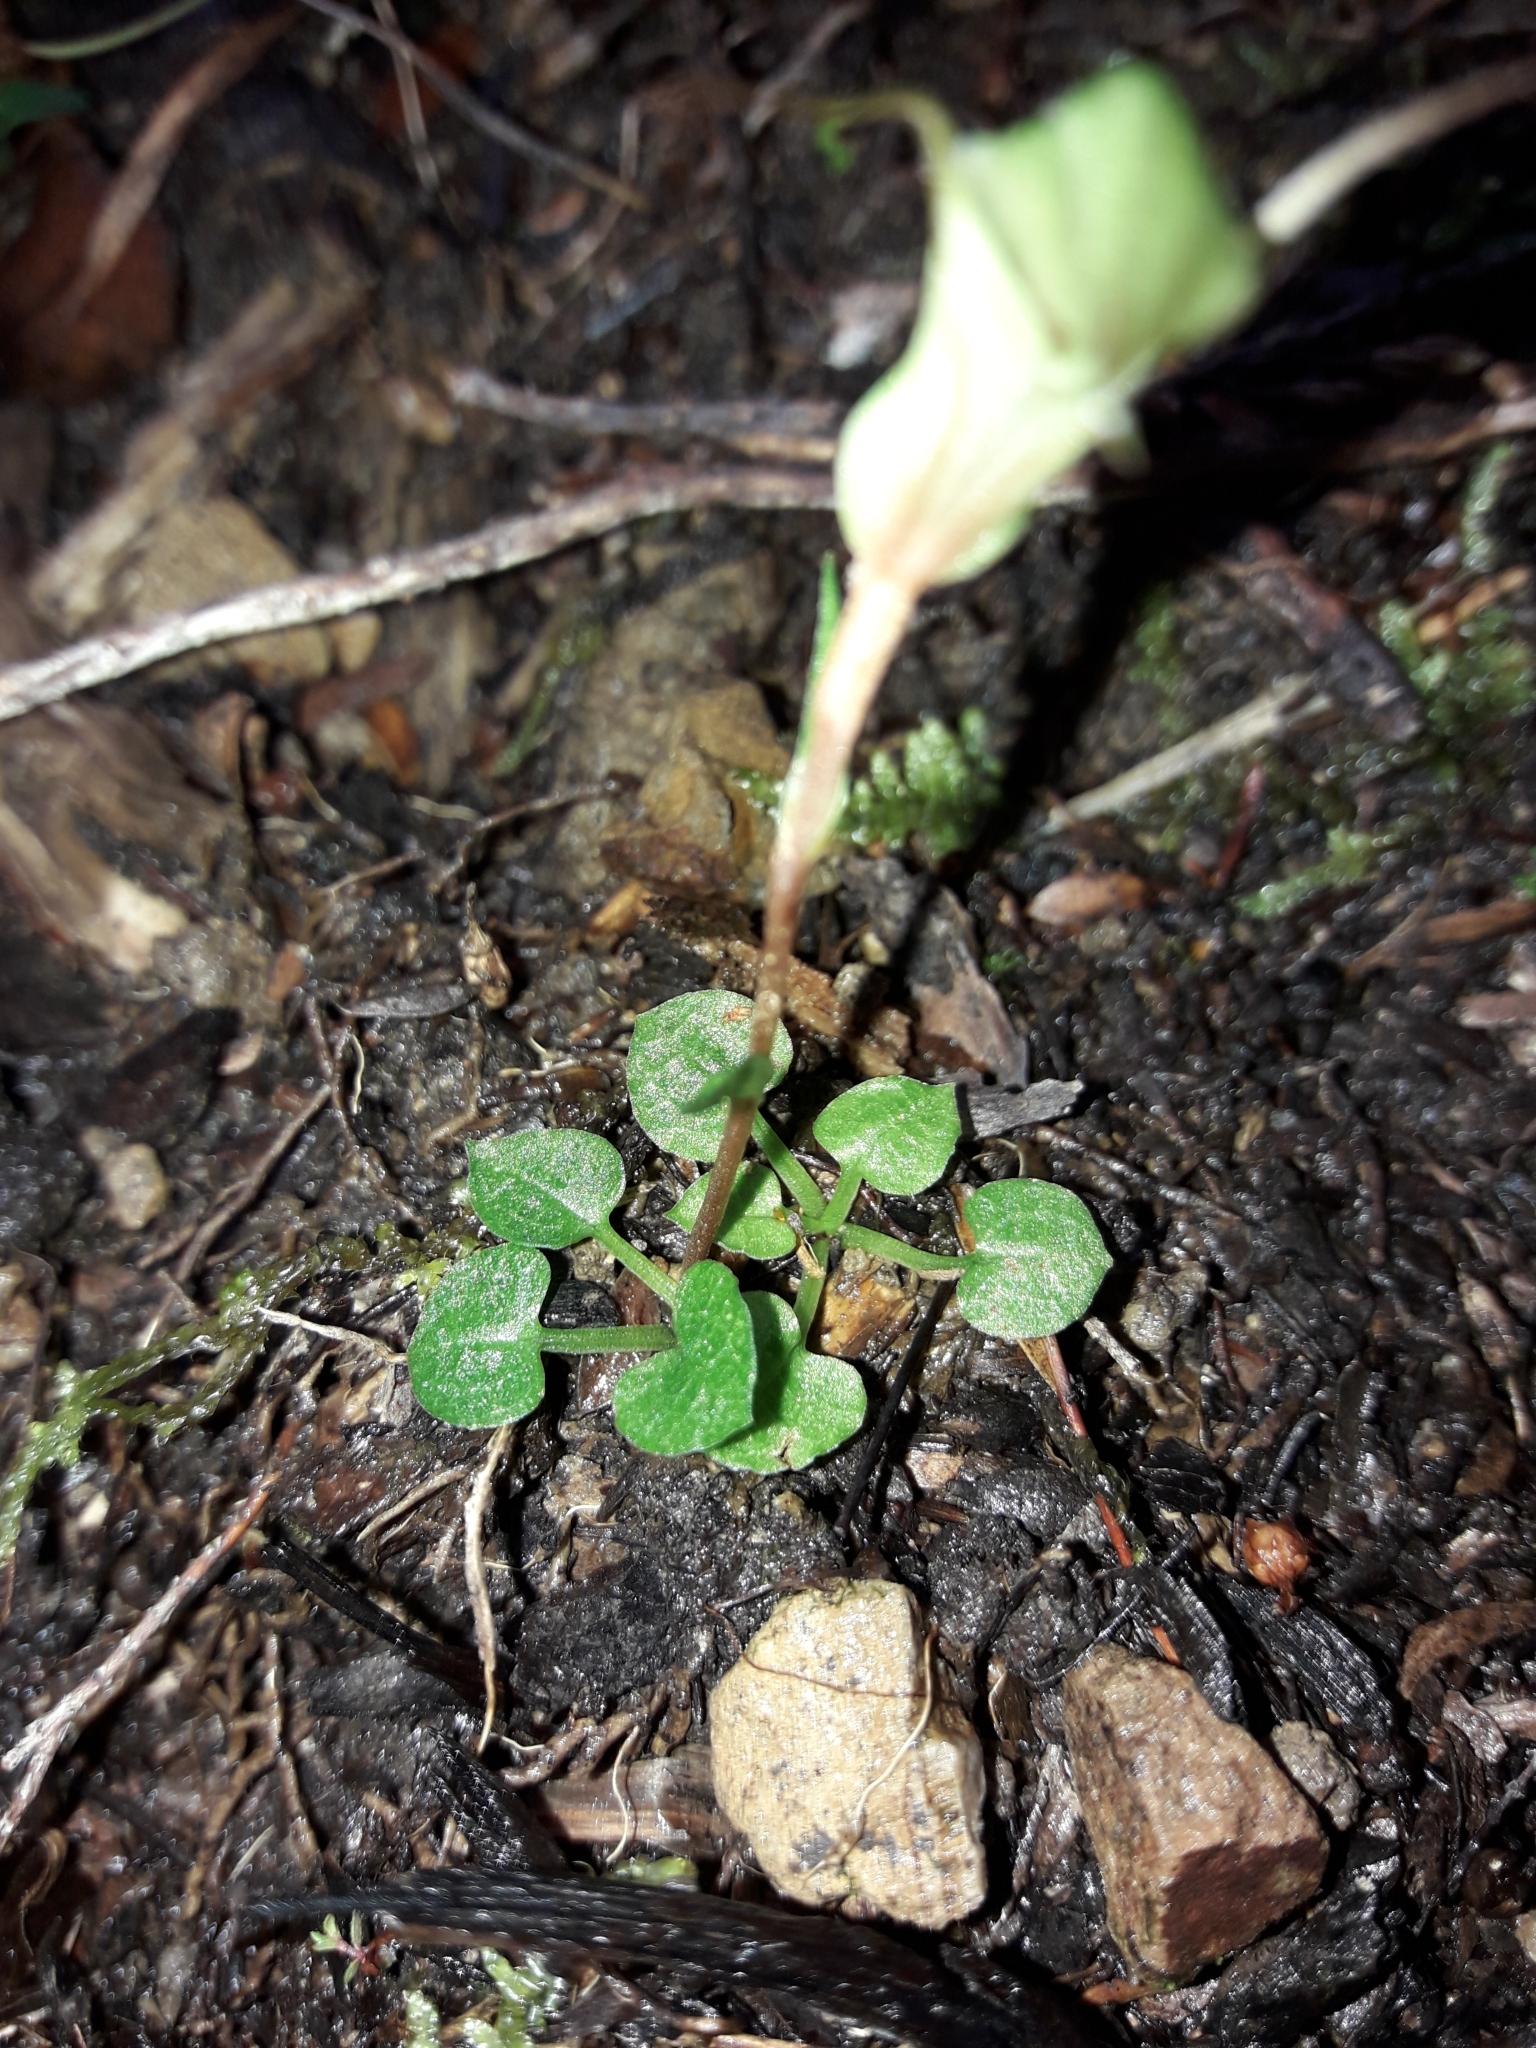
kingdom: Plantae
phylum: Tracheophyta
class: Liliopsida
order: Asparagales
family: Orchidaceae
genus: Pterostylis
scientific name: Pterostylis trullifolia
